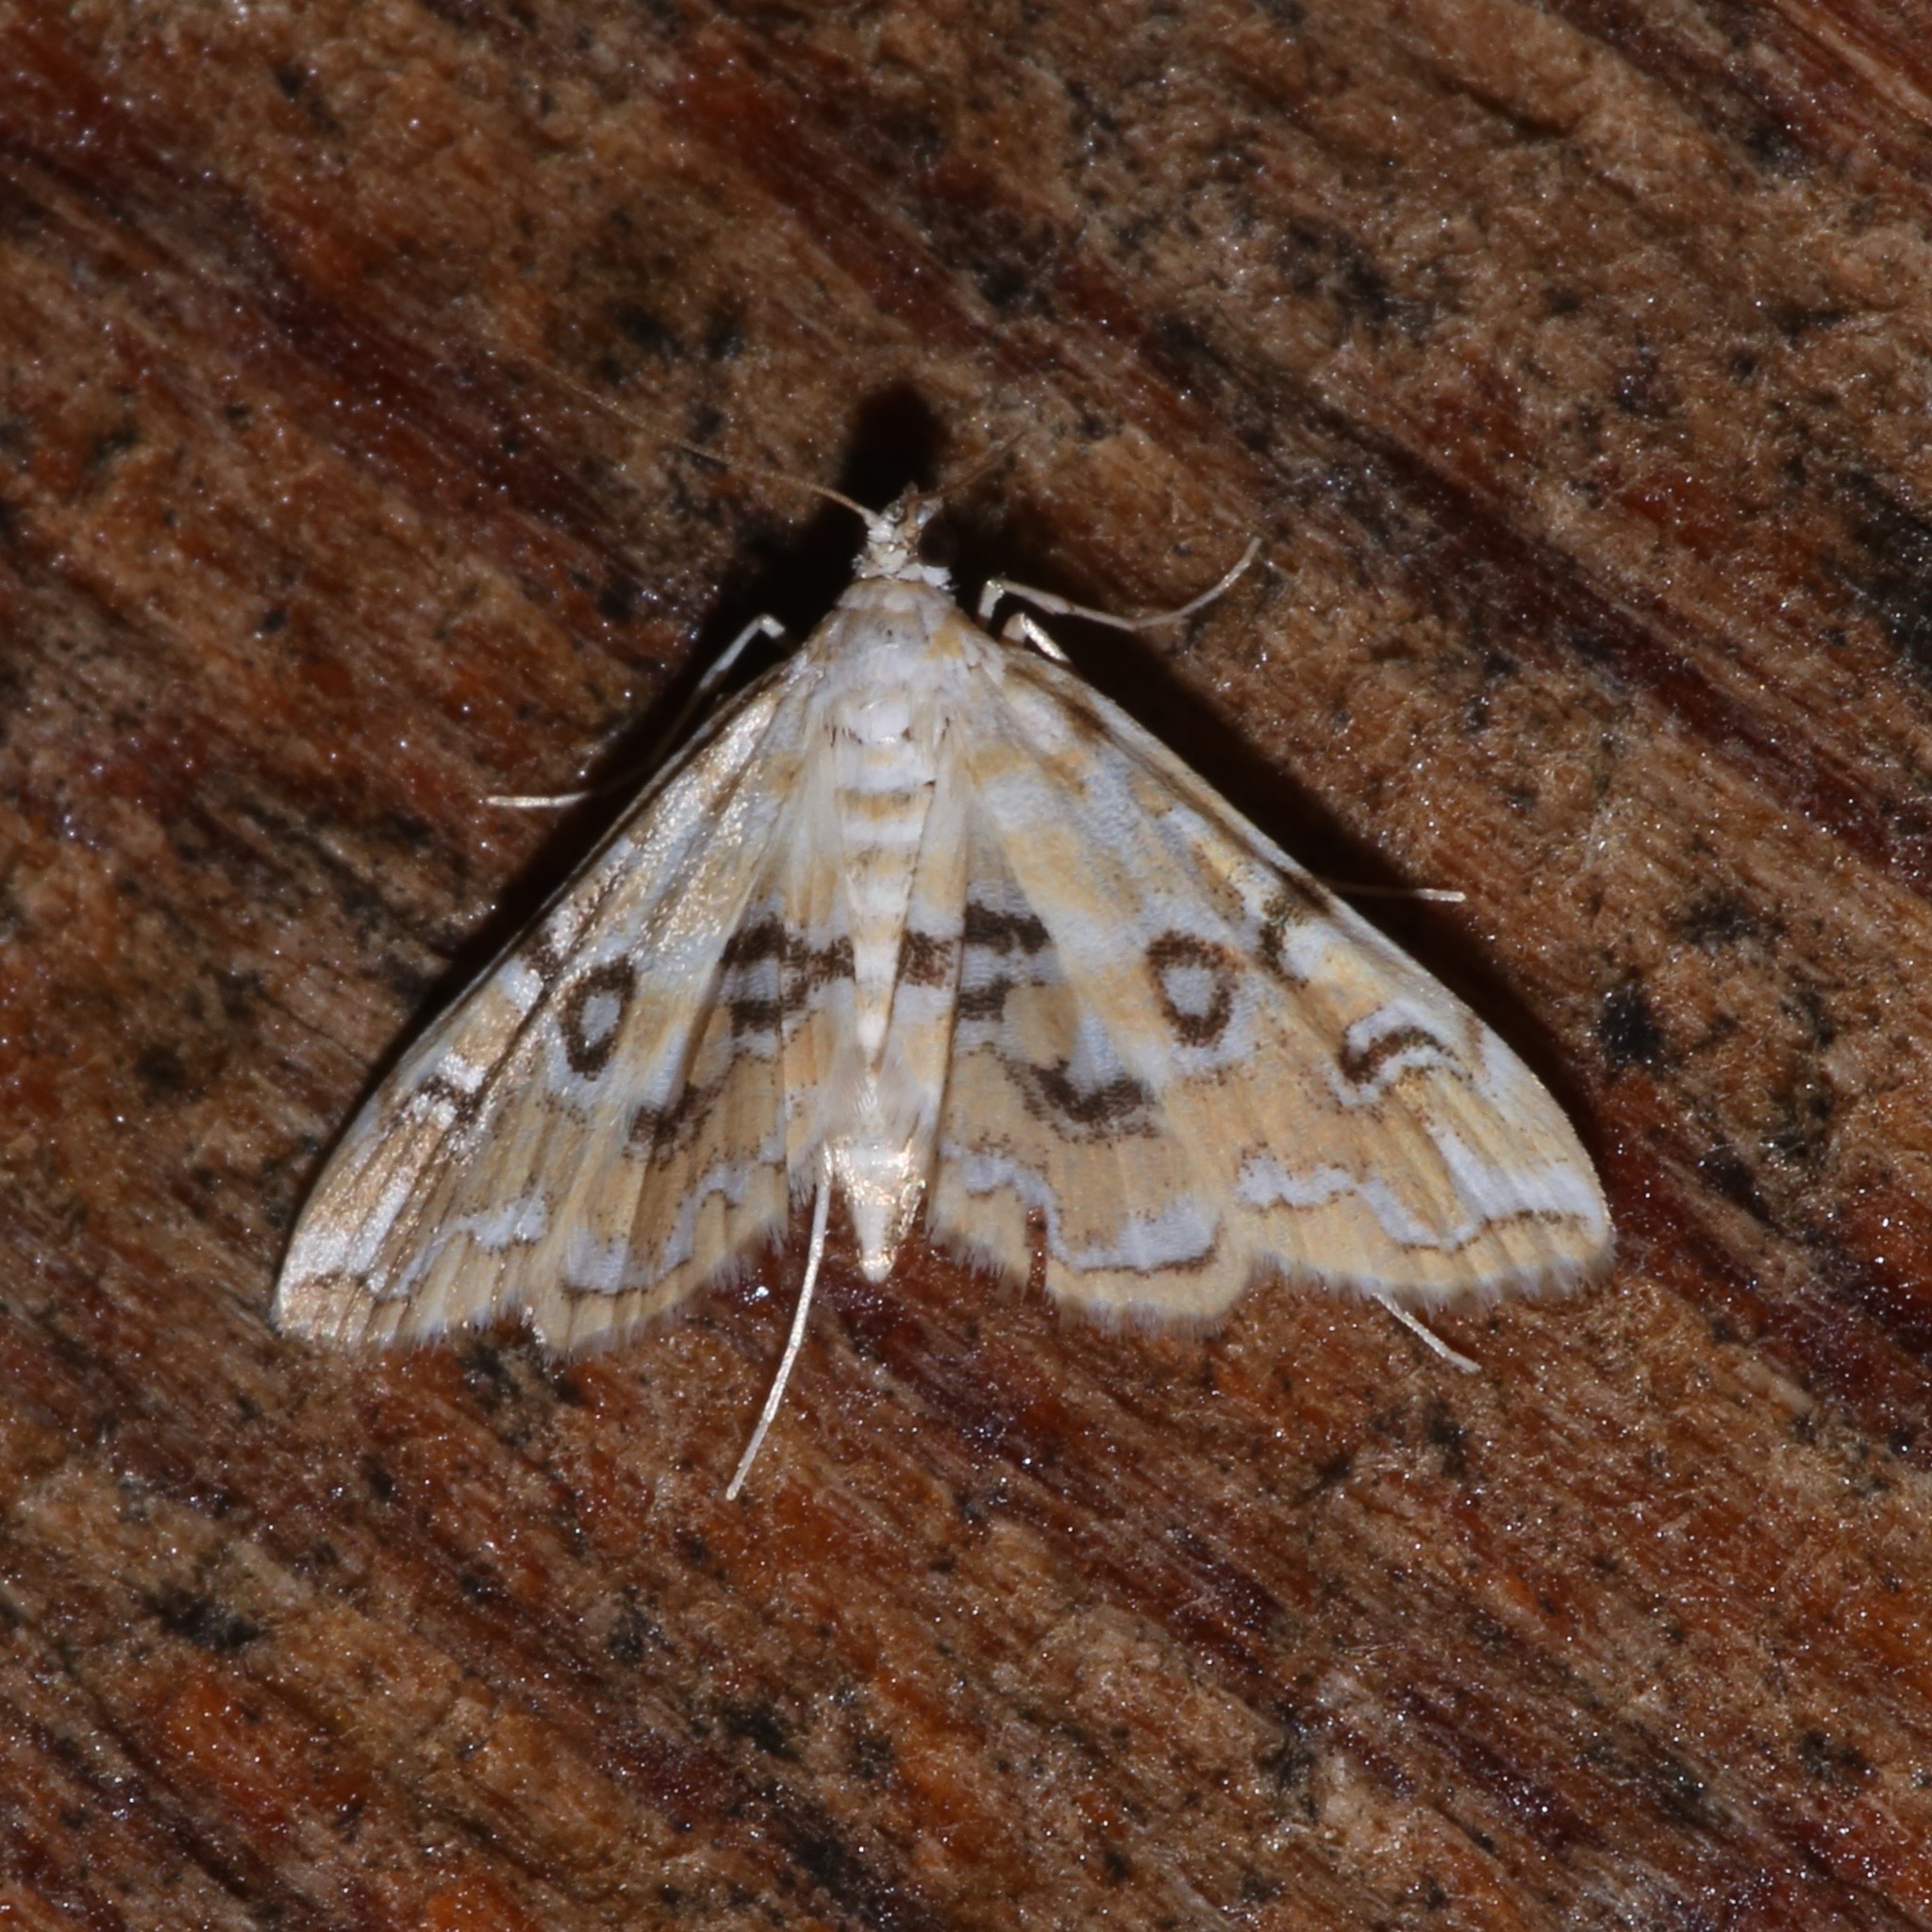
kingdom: Animalia
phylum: Arthropoda
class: Insecta
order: Lepidoptera
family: Crambidae
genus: Elophila
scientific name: Elophila icciusalis
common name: Pondside pyralid moth
